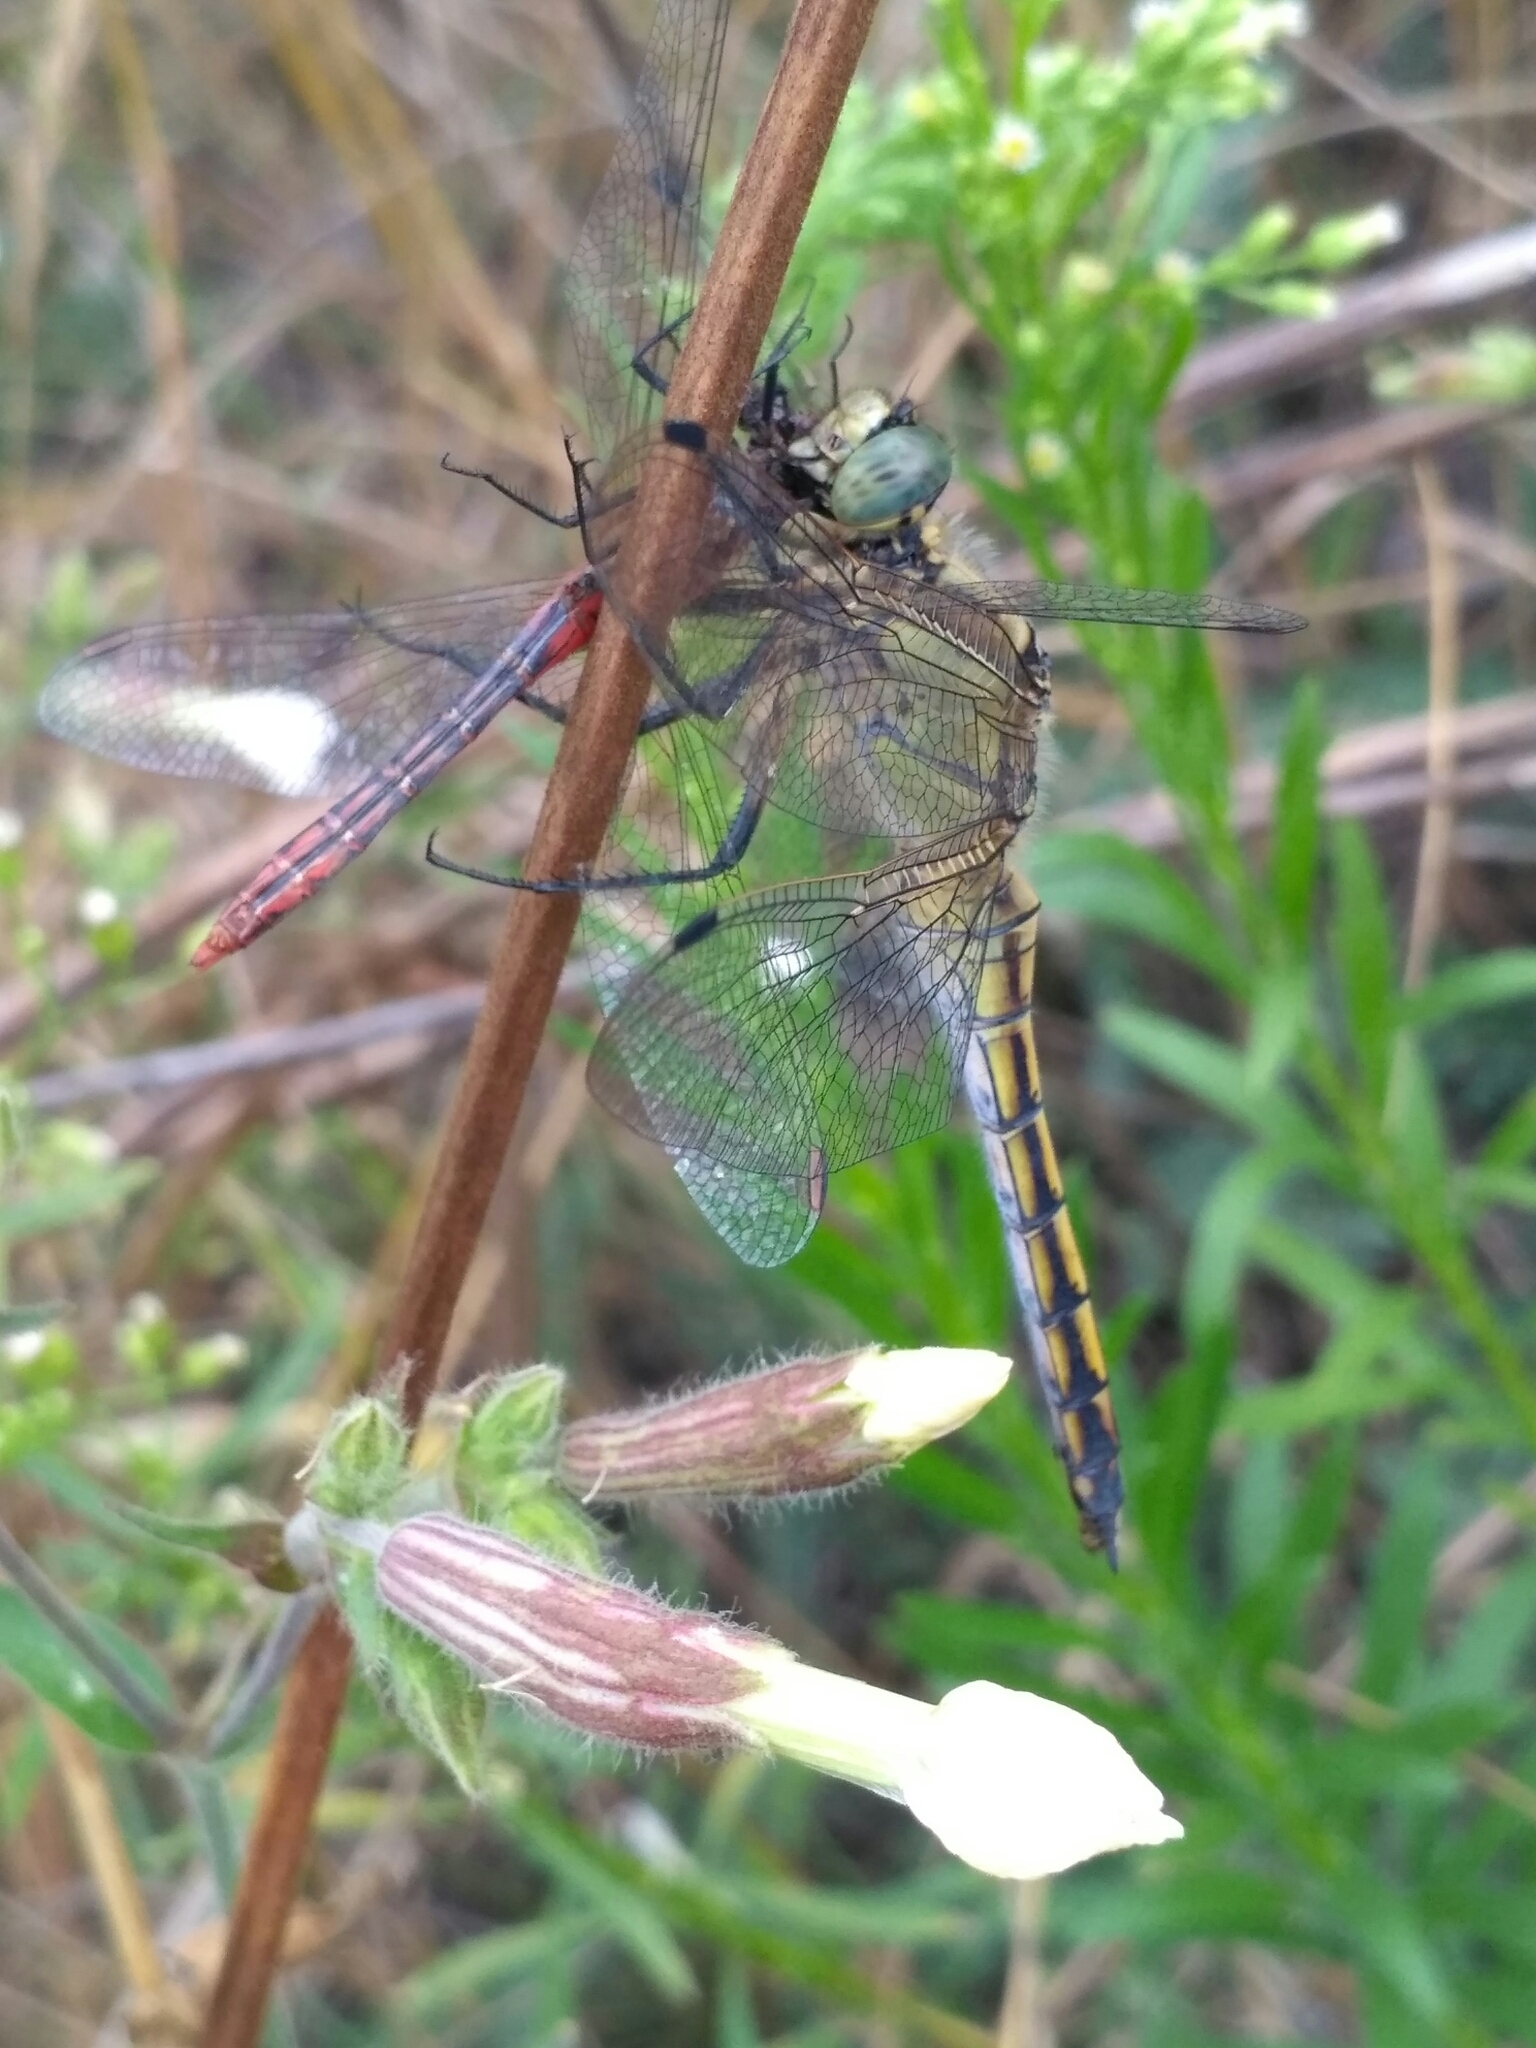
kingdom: Animalia
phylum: Arthropoda
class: Insecta
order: Odonata
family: Libellulidae
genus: Orthetrum
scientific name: Orthetrum cancellatum
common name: Black-tailed skimmer
